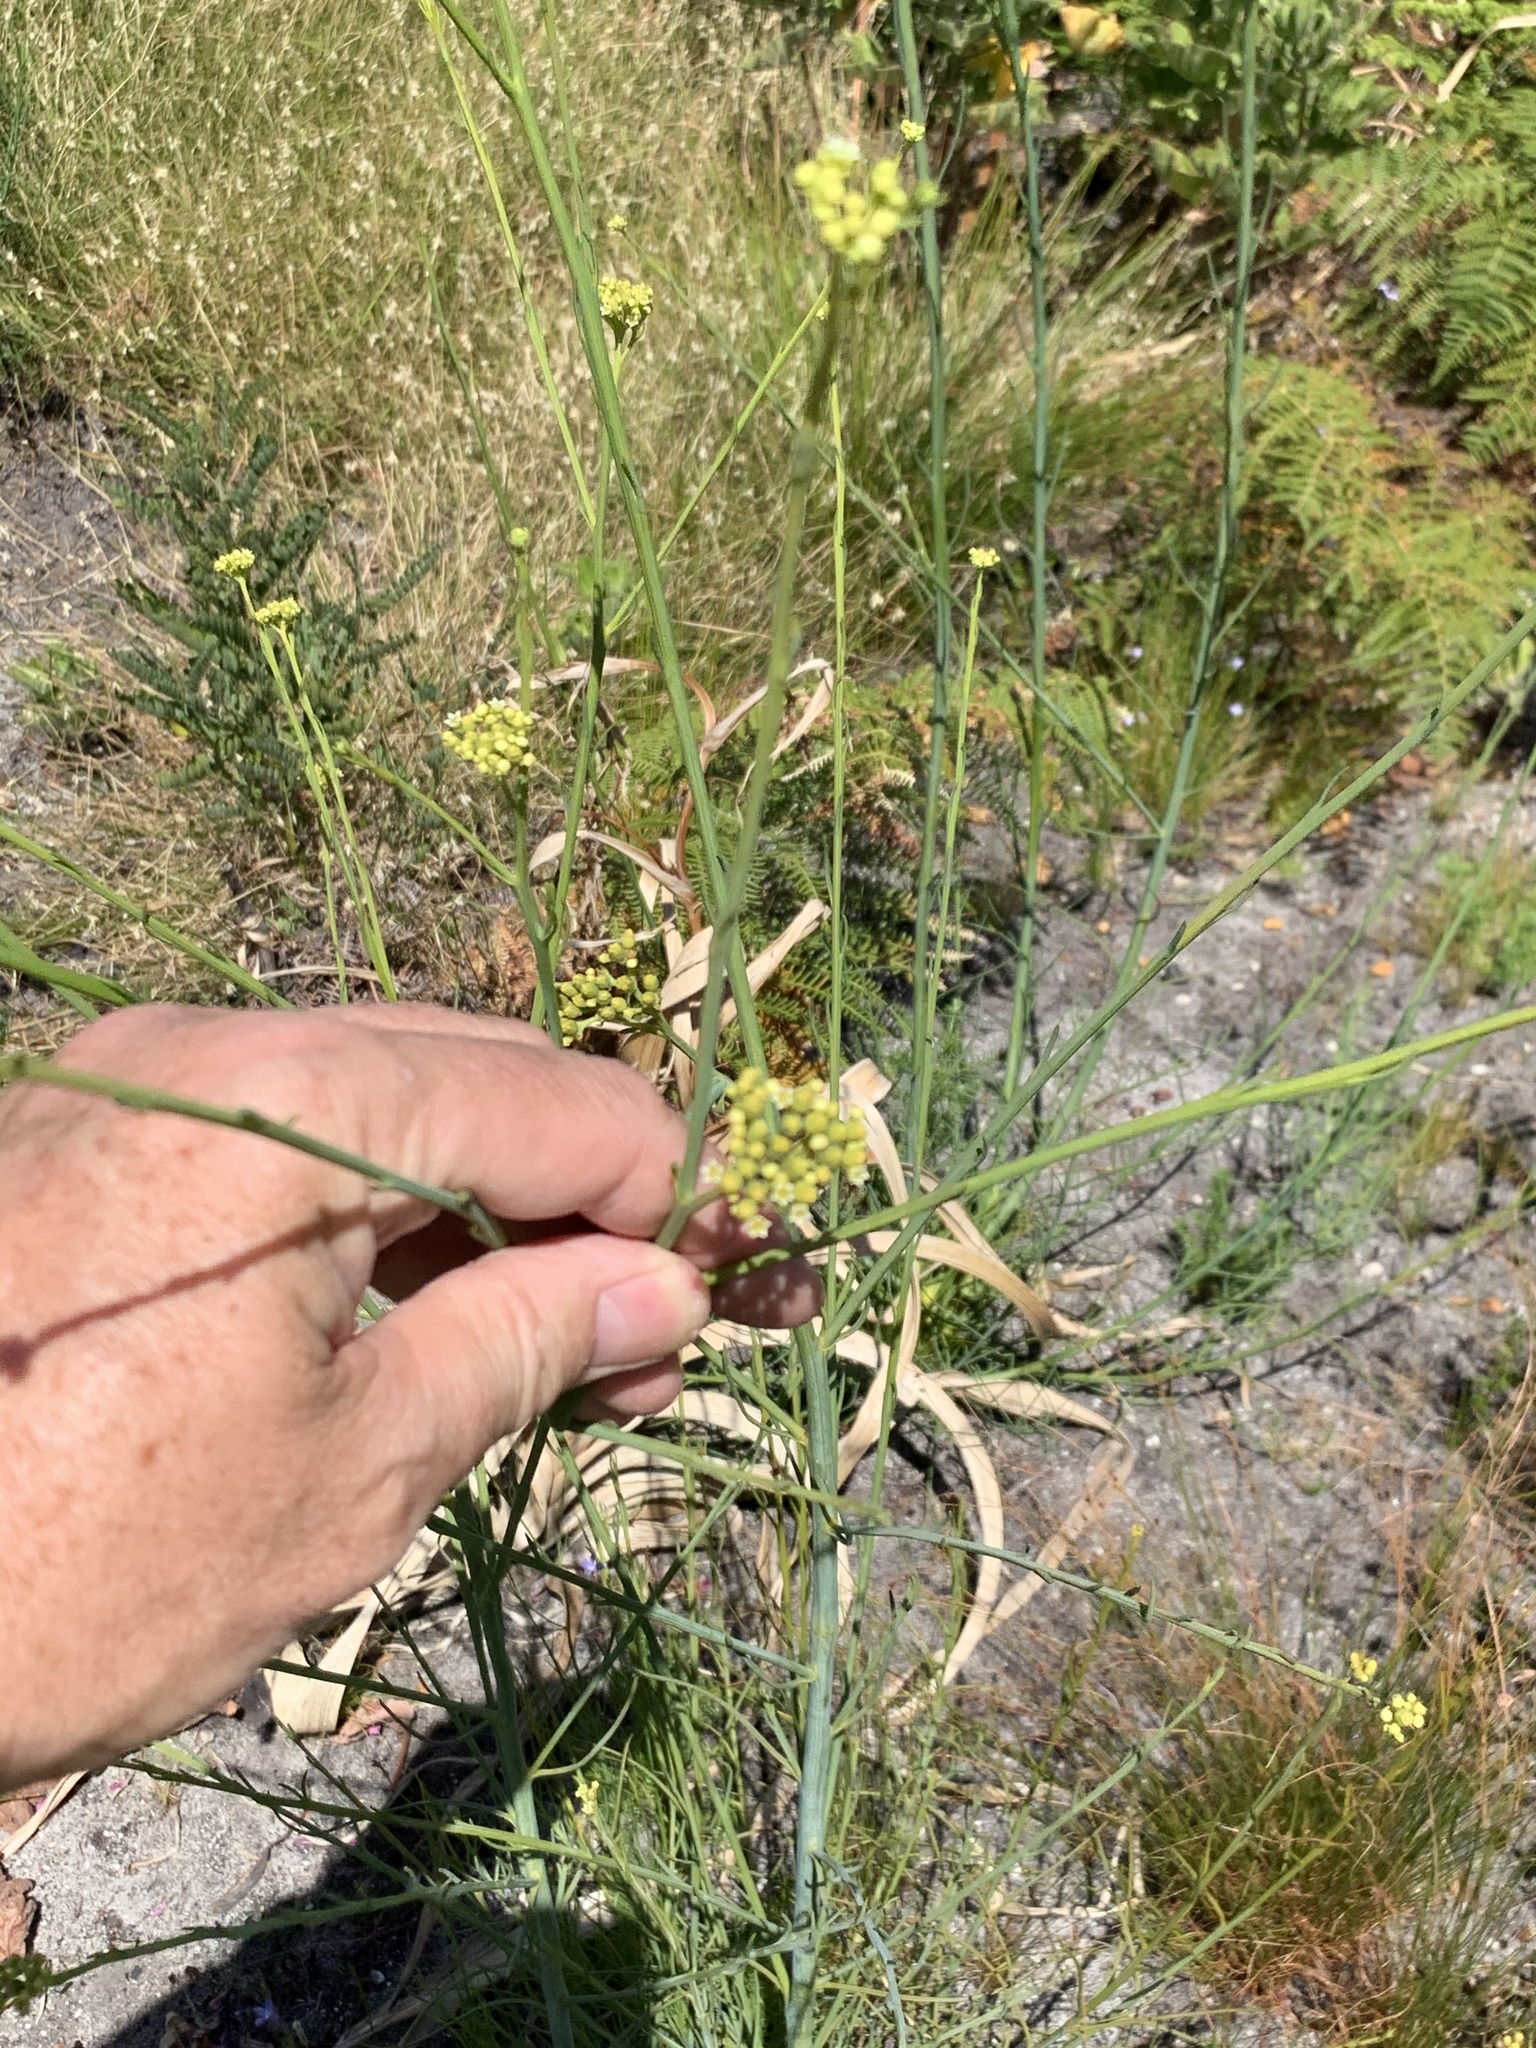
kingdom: Plantae
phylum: Tracheophyta
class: Magnoliopsida
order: Santalales
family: Thesiaceae
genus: Thesium
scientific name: Thesium strictum
